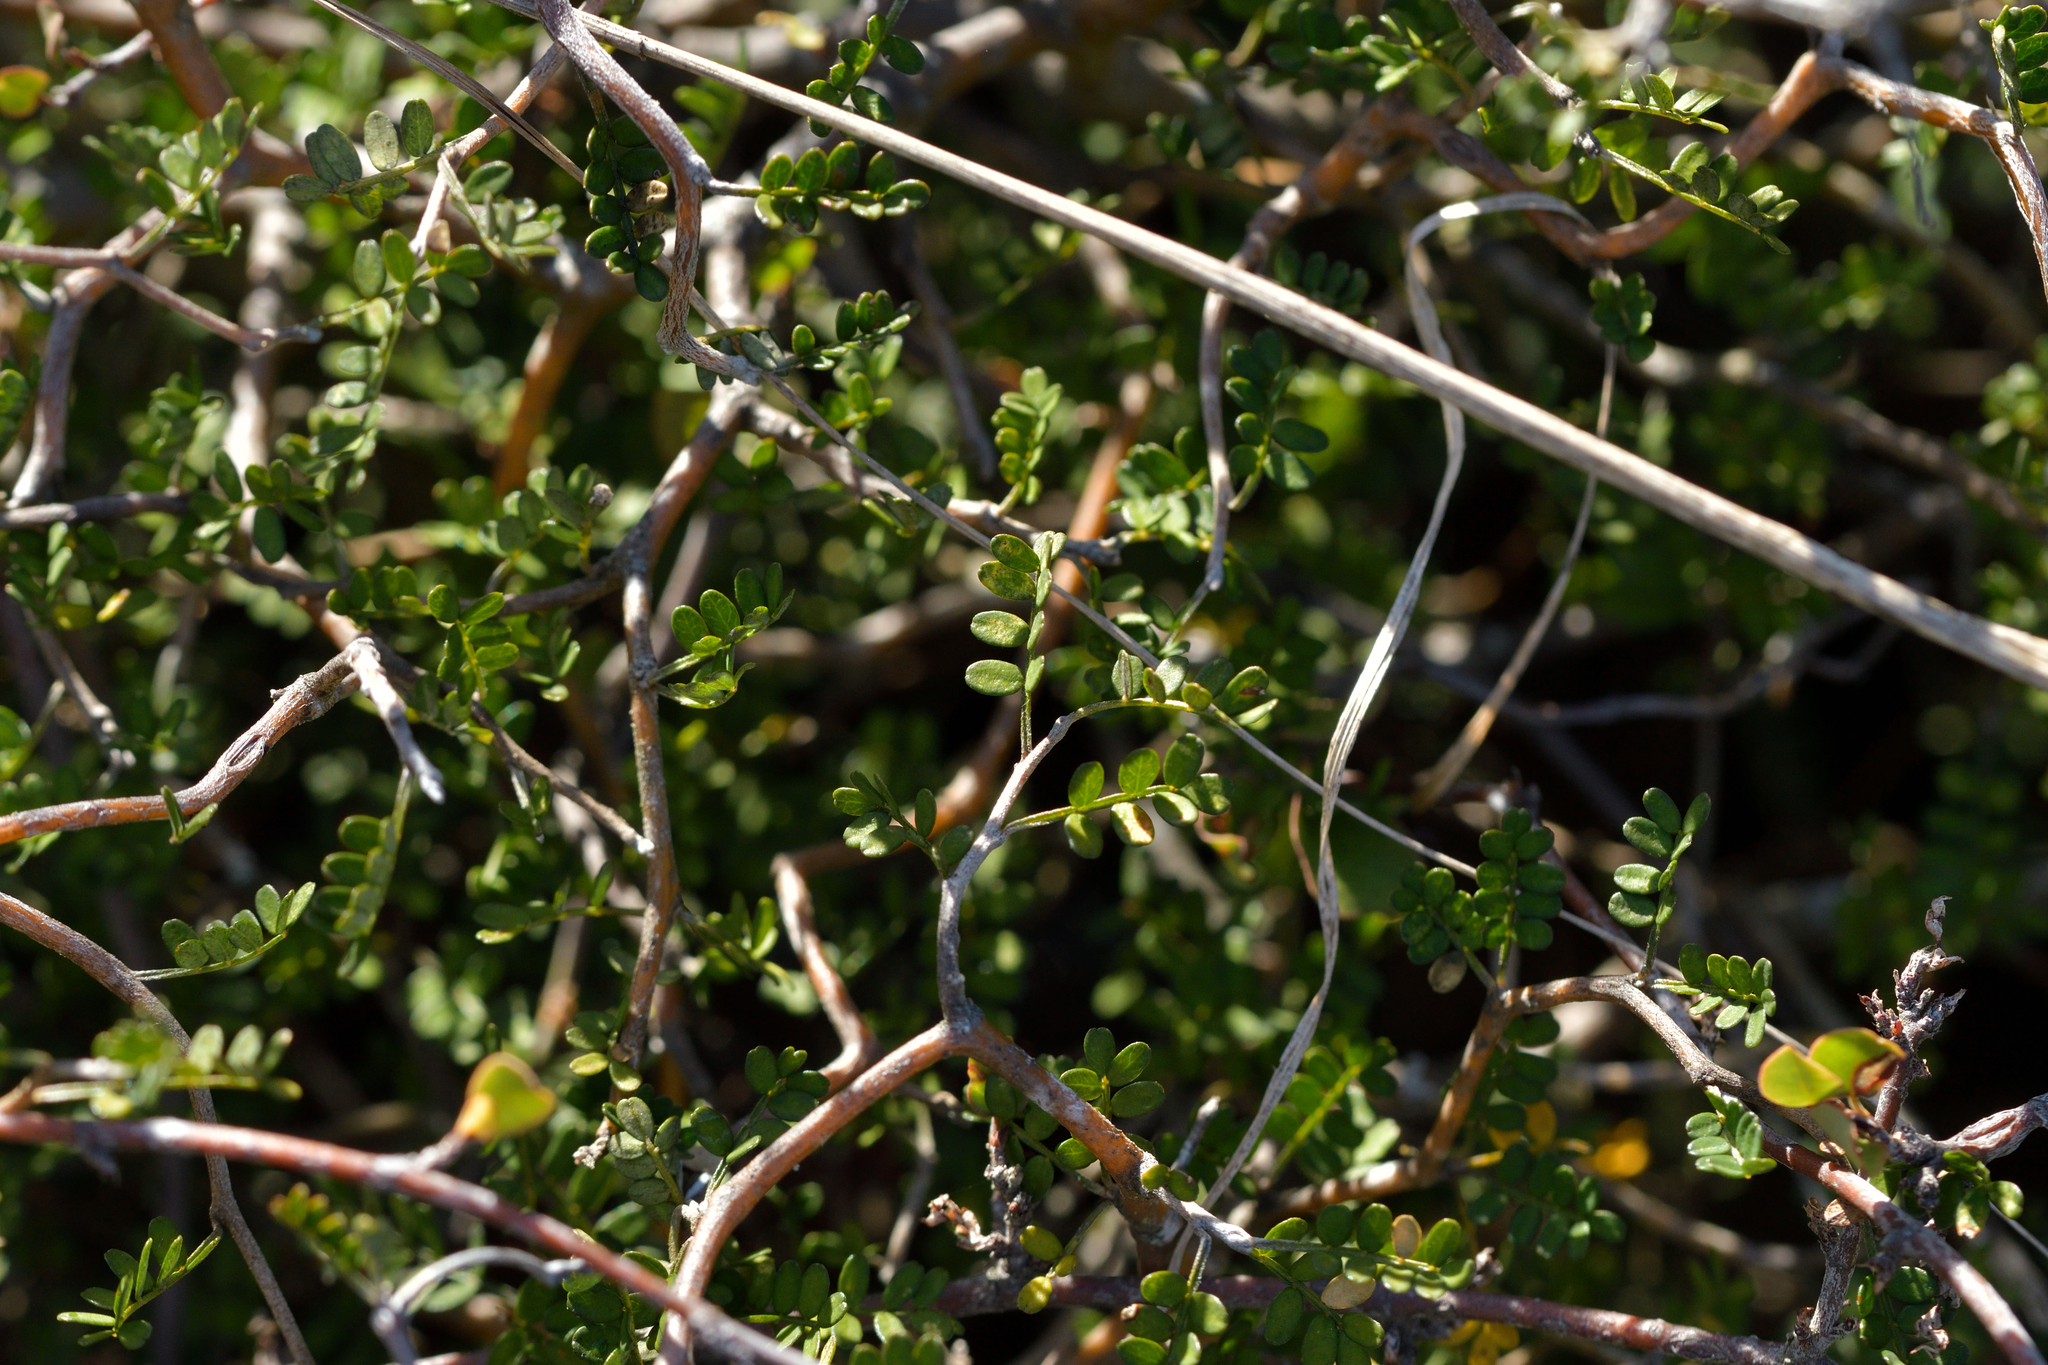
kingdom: Plantae
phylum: Tracheophyta
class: Magnoliopsida
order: Fabales
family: Fabaceae
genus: Sophora
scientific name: Sophora prostrata
